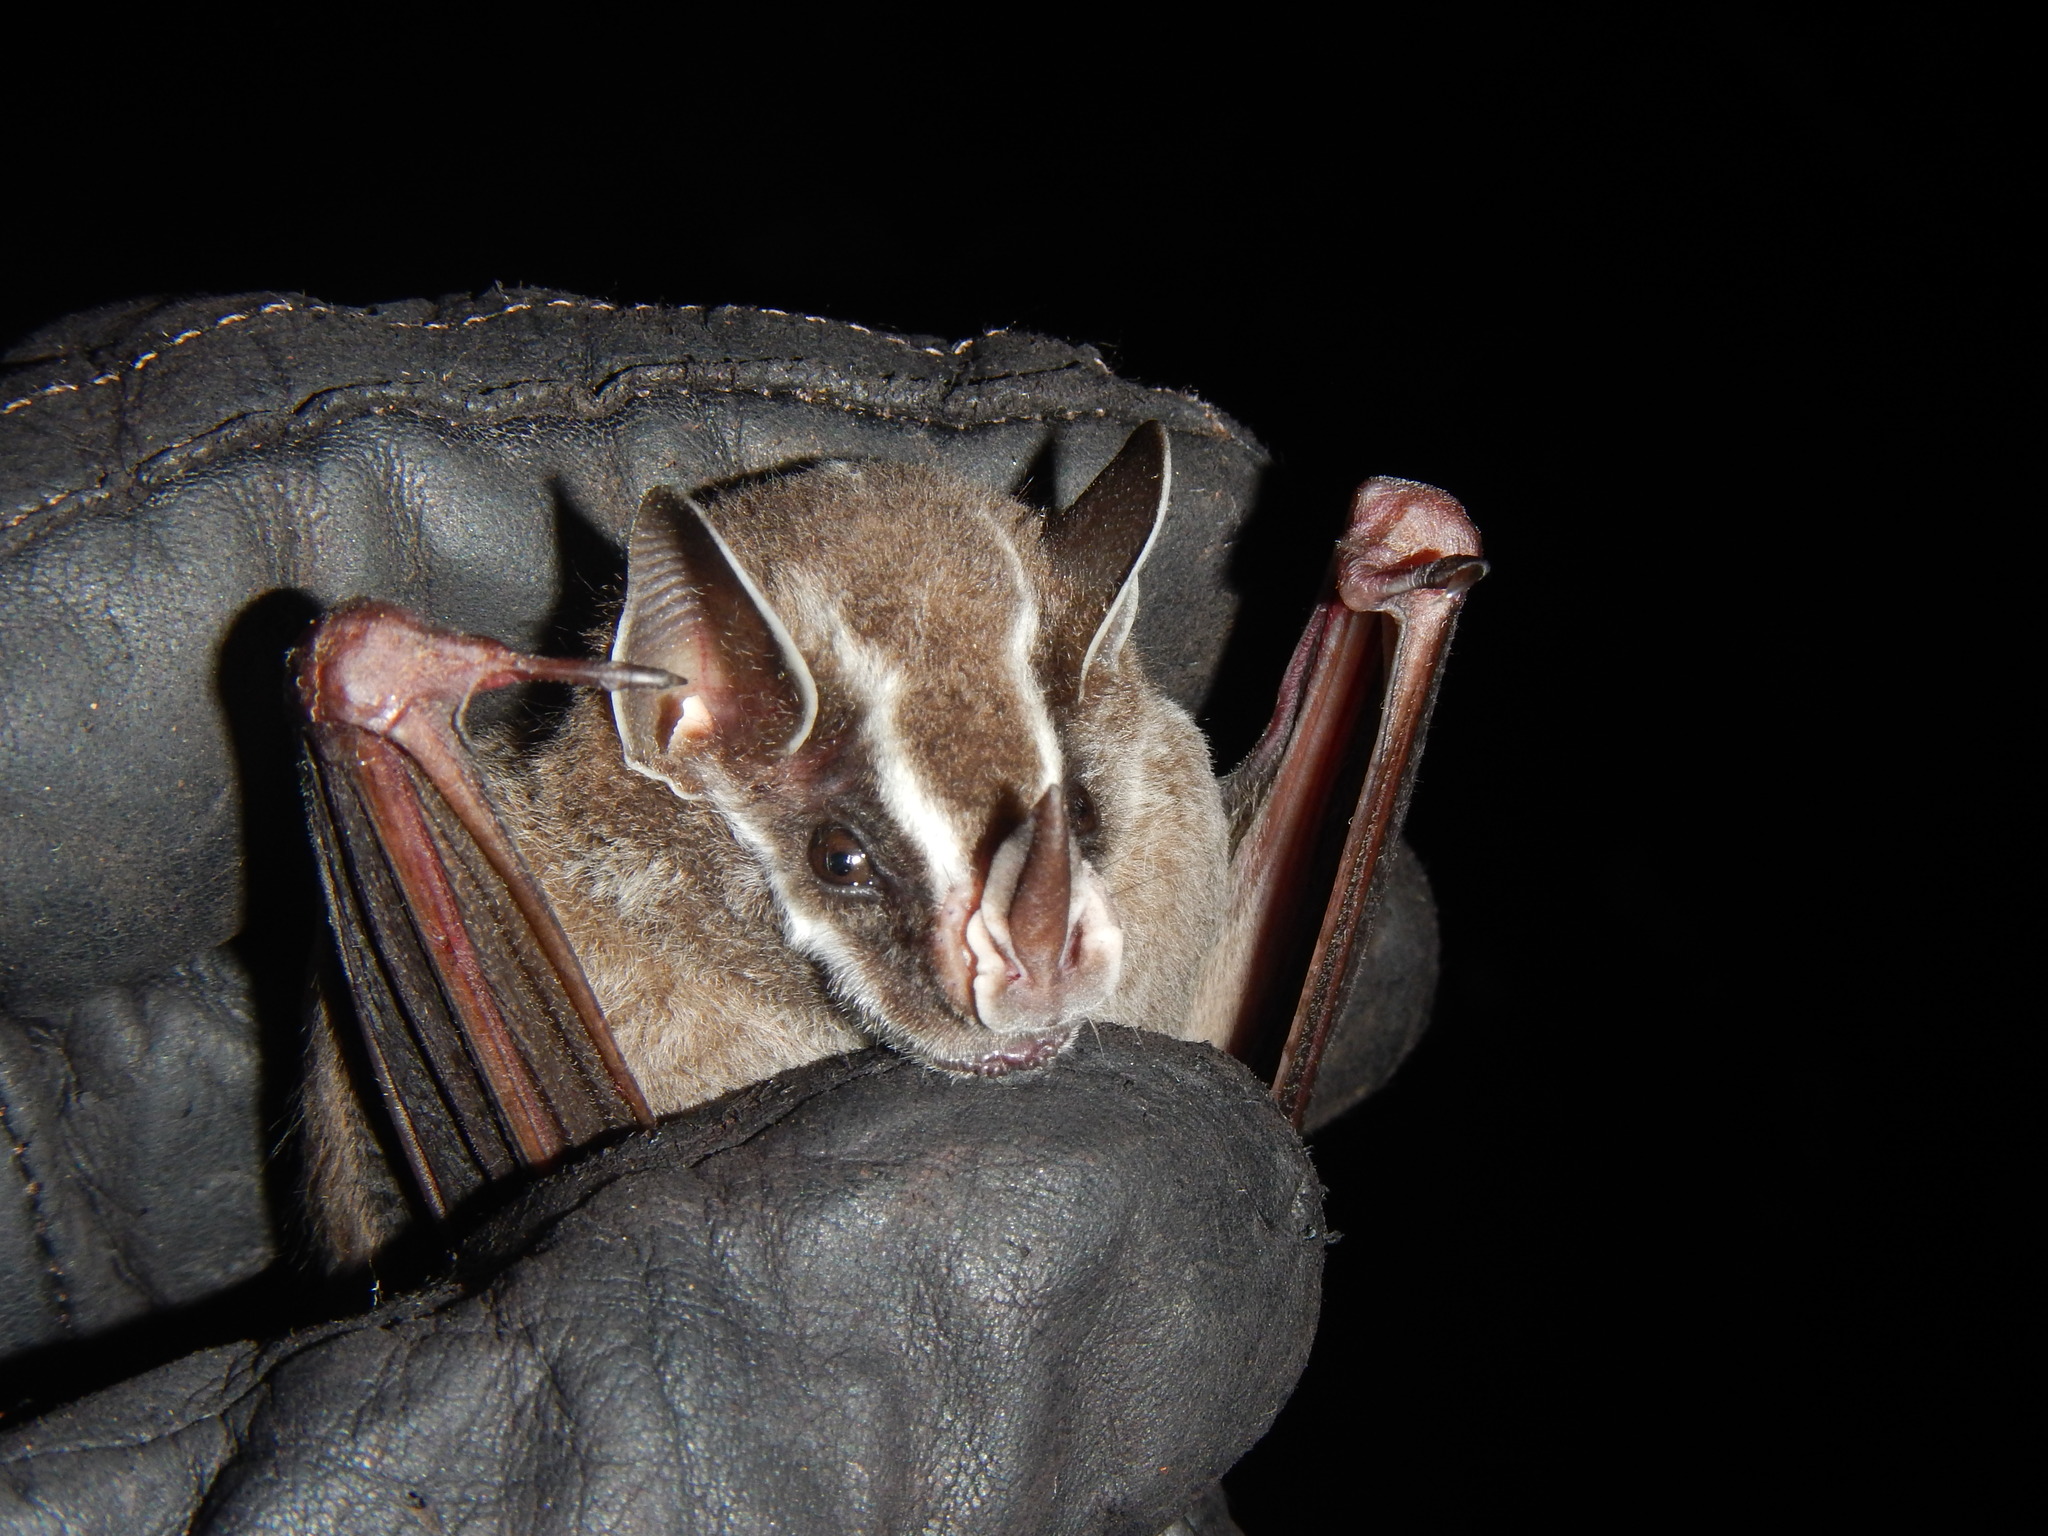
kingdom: Animalia
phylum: Chordata
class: Mammalia
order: Chiroptera
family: Phyllostomidae
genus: Uroderma
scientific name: Uroderma bilobatum
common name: Common tent-making bat
